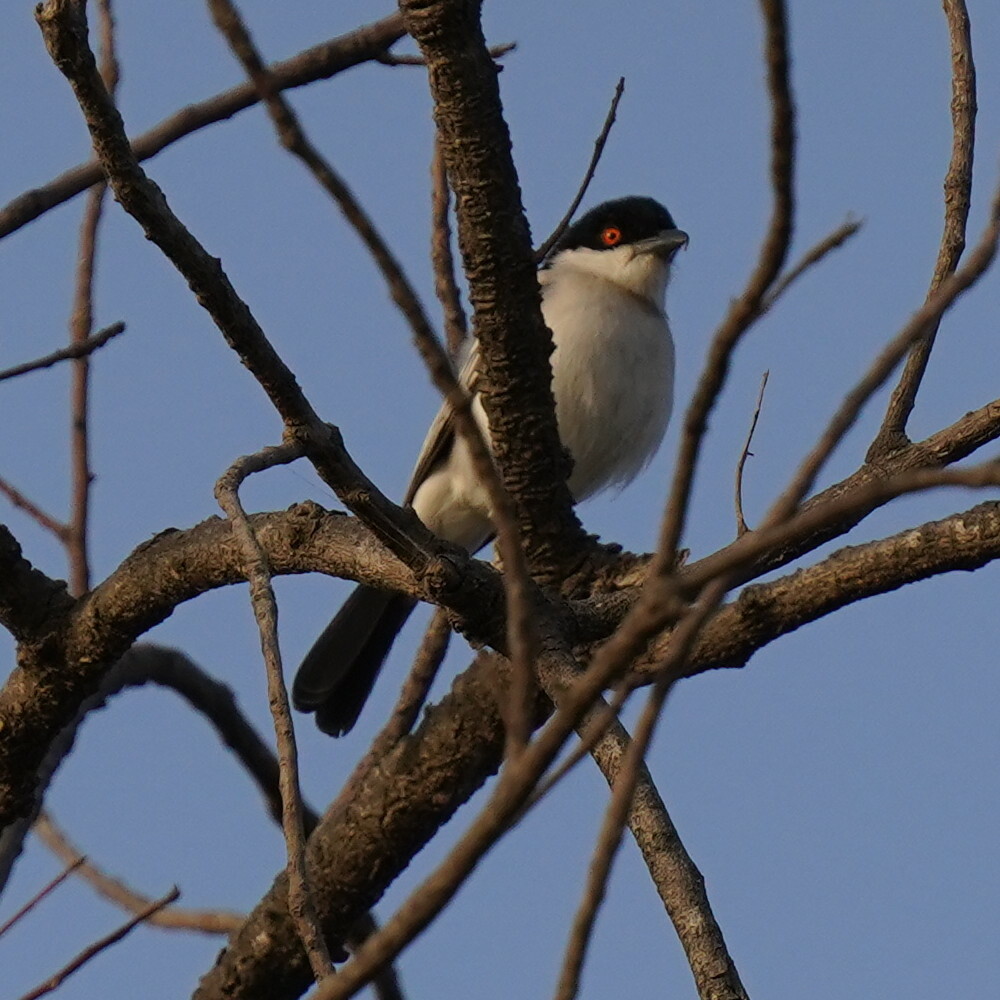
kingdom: Animalia
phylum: Chordata
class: Aves
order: Passeriformes
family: Malaconotidae
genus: Dryoscopus
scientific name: Dryoscopus gambensis
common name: Northern puffback
